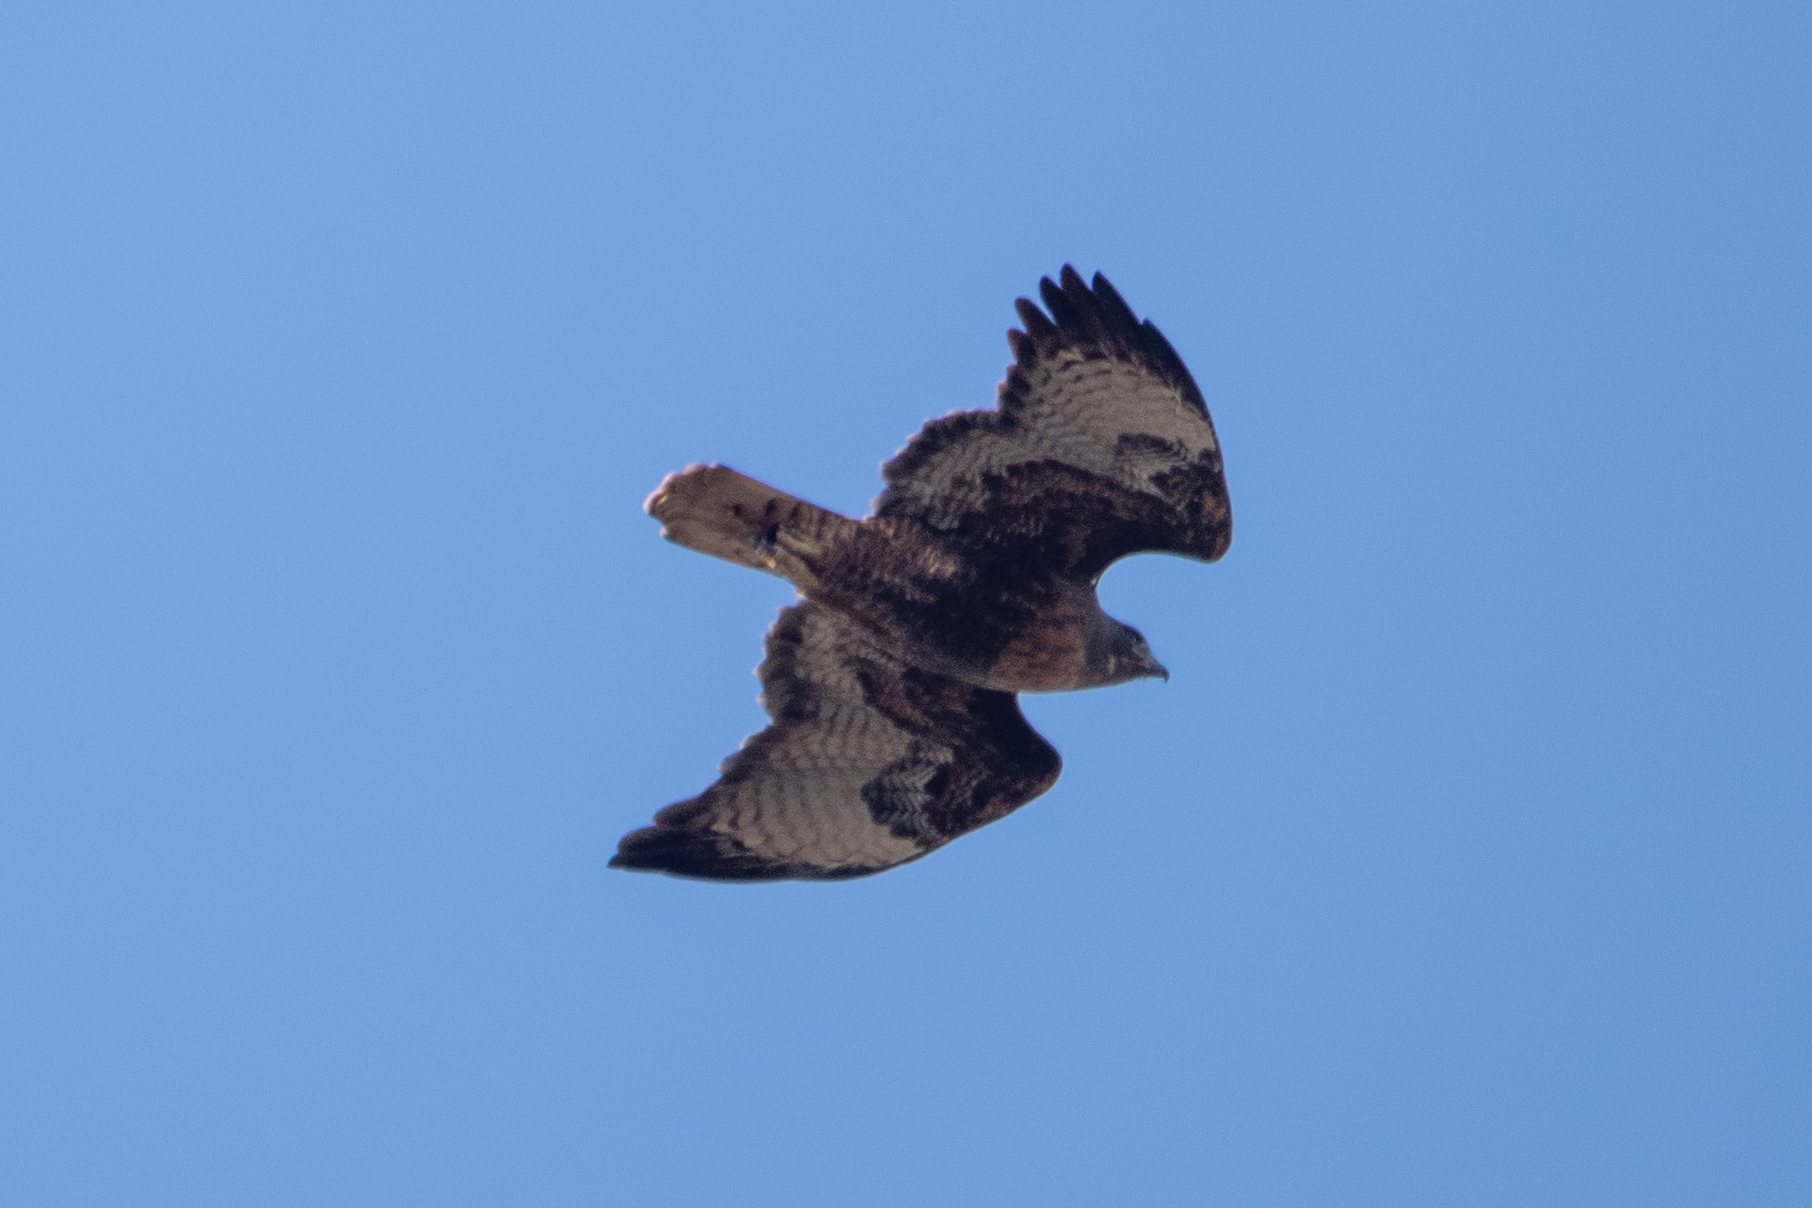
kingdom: Animalia
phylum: Chordata
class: Aves
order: Accipitriformes
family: Accipitridae
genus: Buteo
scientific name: Buteo jamaicensis
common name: Red-tailed hawk
